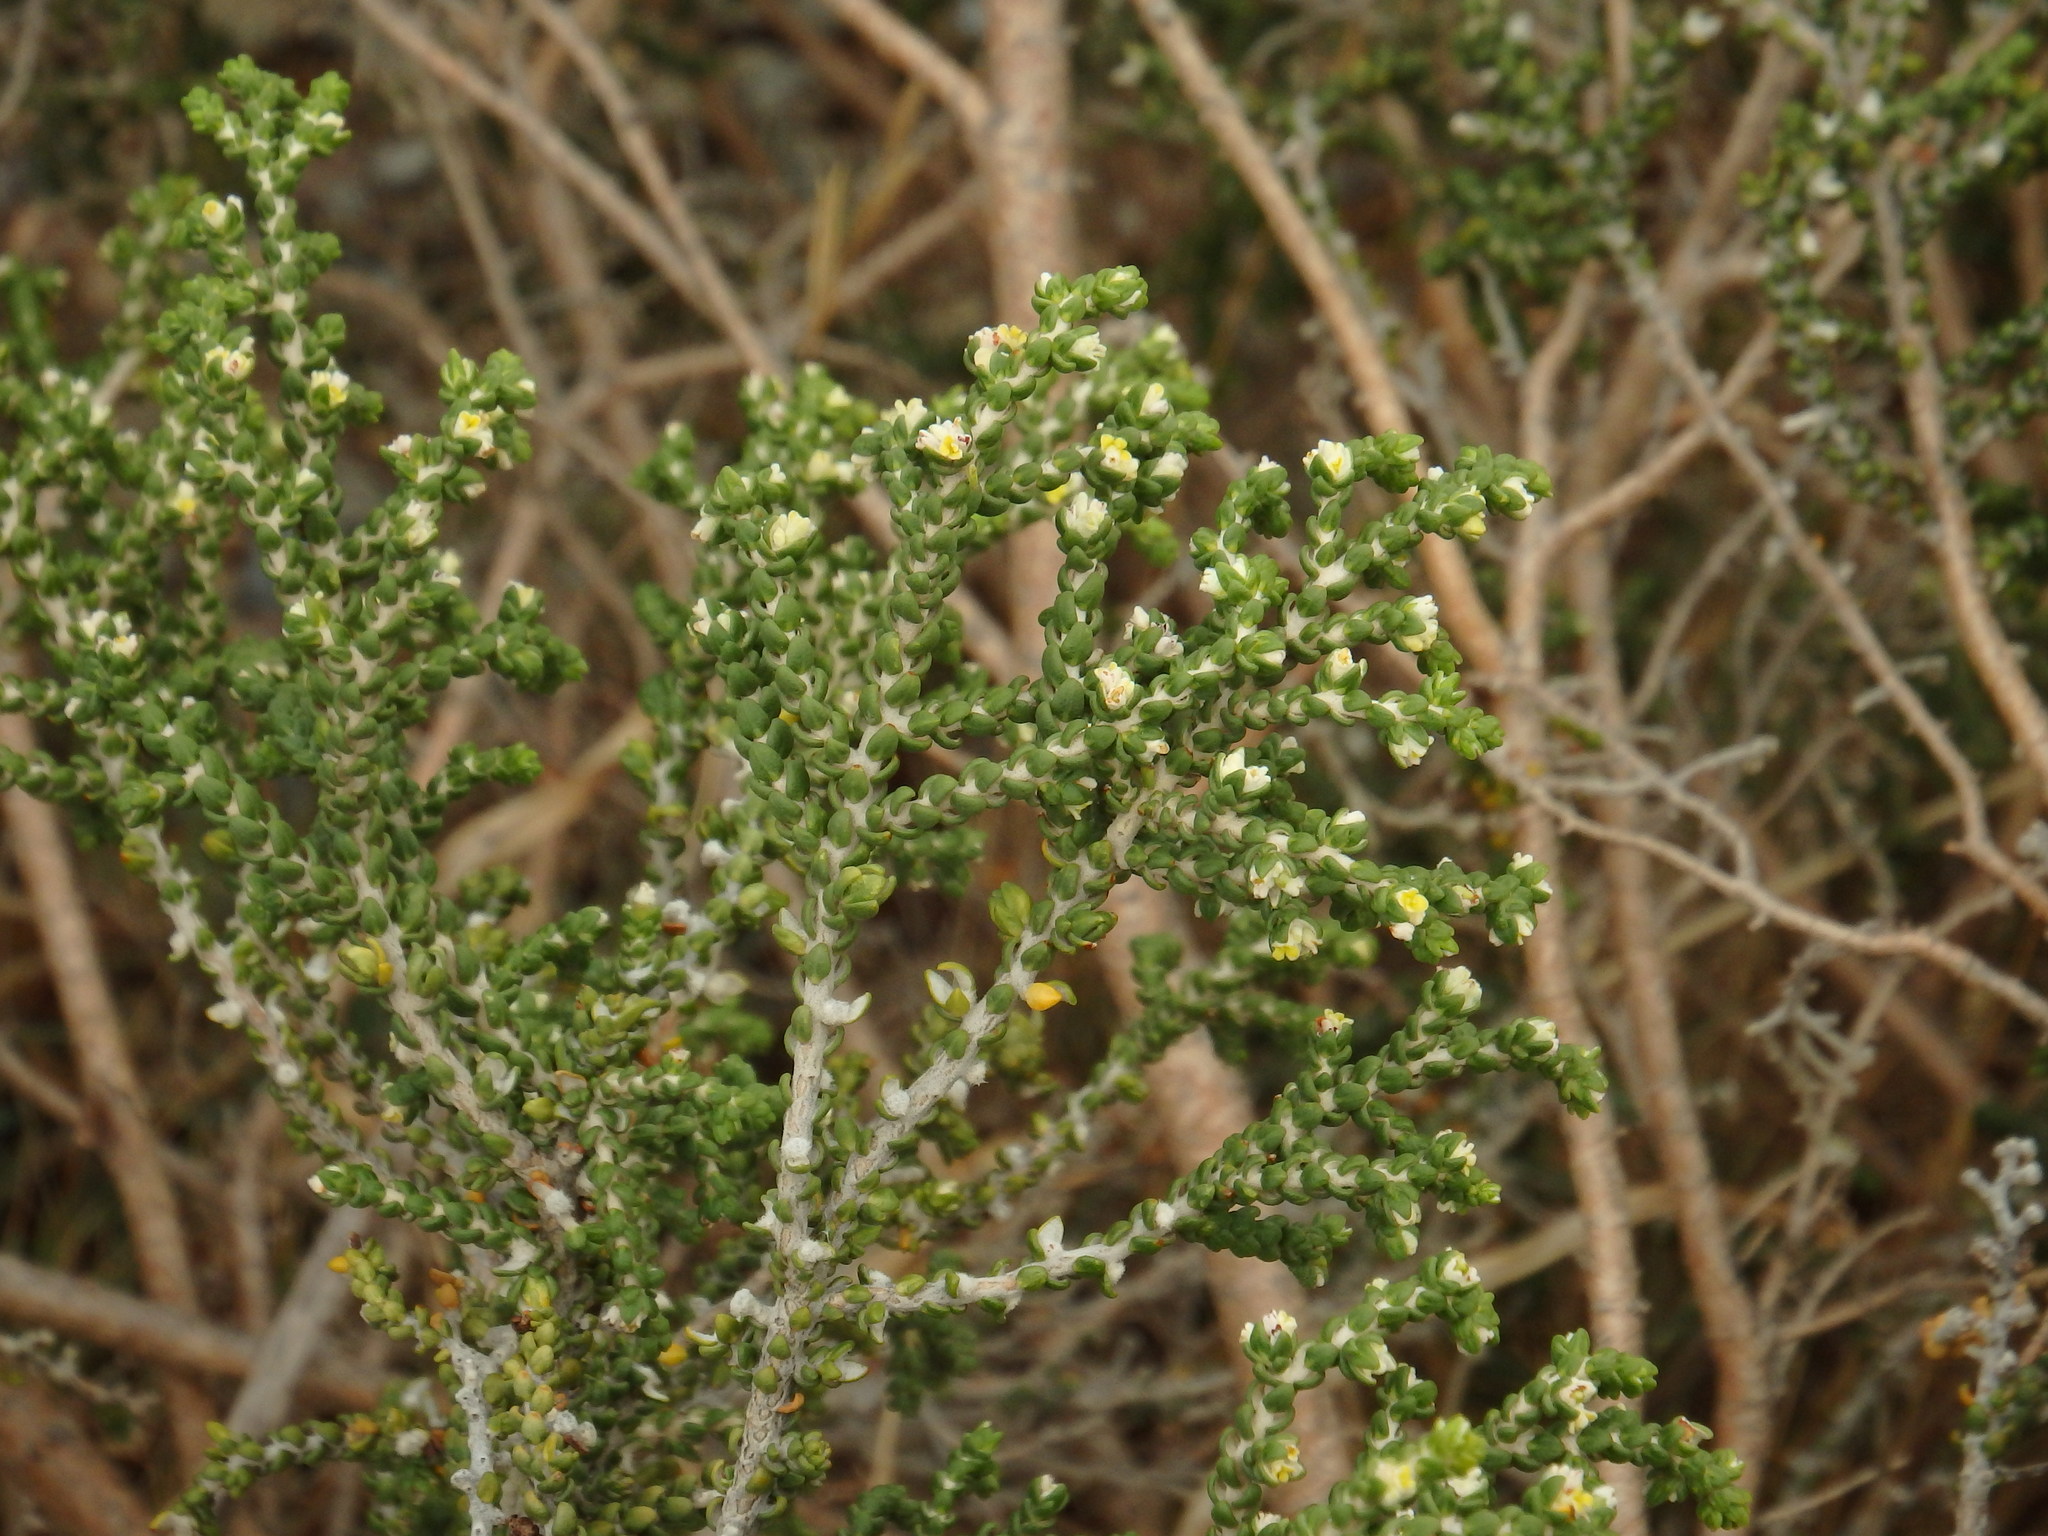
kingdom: Plantae
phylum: Tracheophyta
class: Magnoliopsida
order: Malvales
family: Thymelaeaceae
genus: Thymelaea
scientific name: Thymelaea hirsuta
